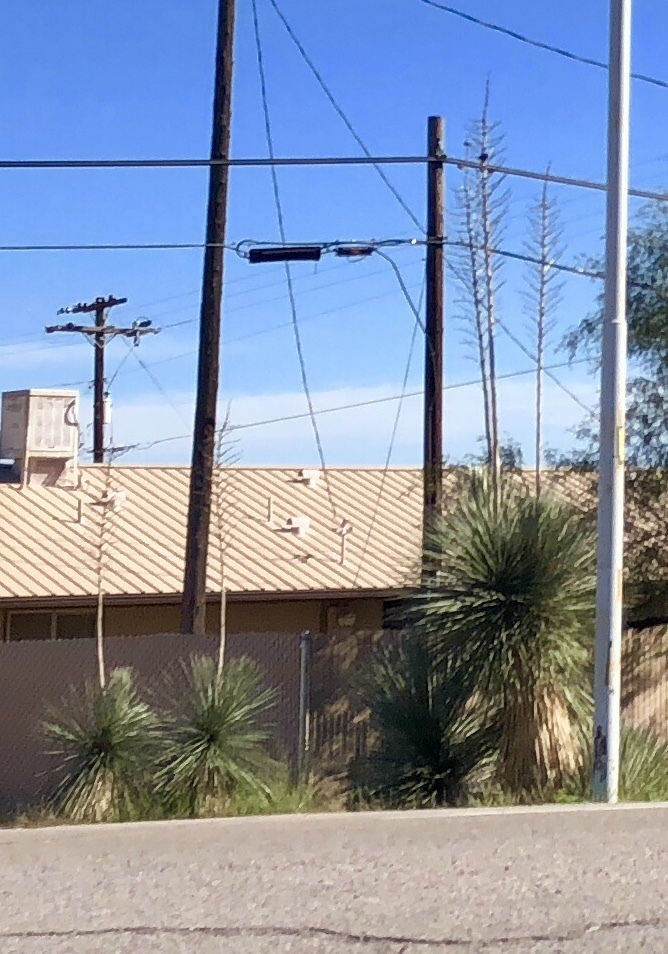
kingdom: Plantae
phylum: Tracheophyta
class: Liliopsida
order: Asparagales
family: Asparagaceae
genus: Yucca
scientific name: Yucca elata
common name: Palmella
